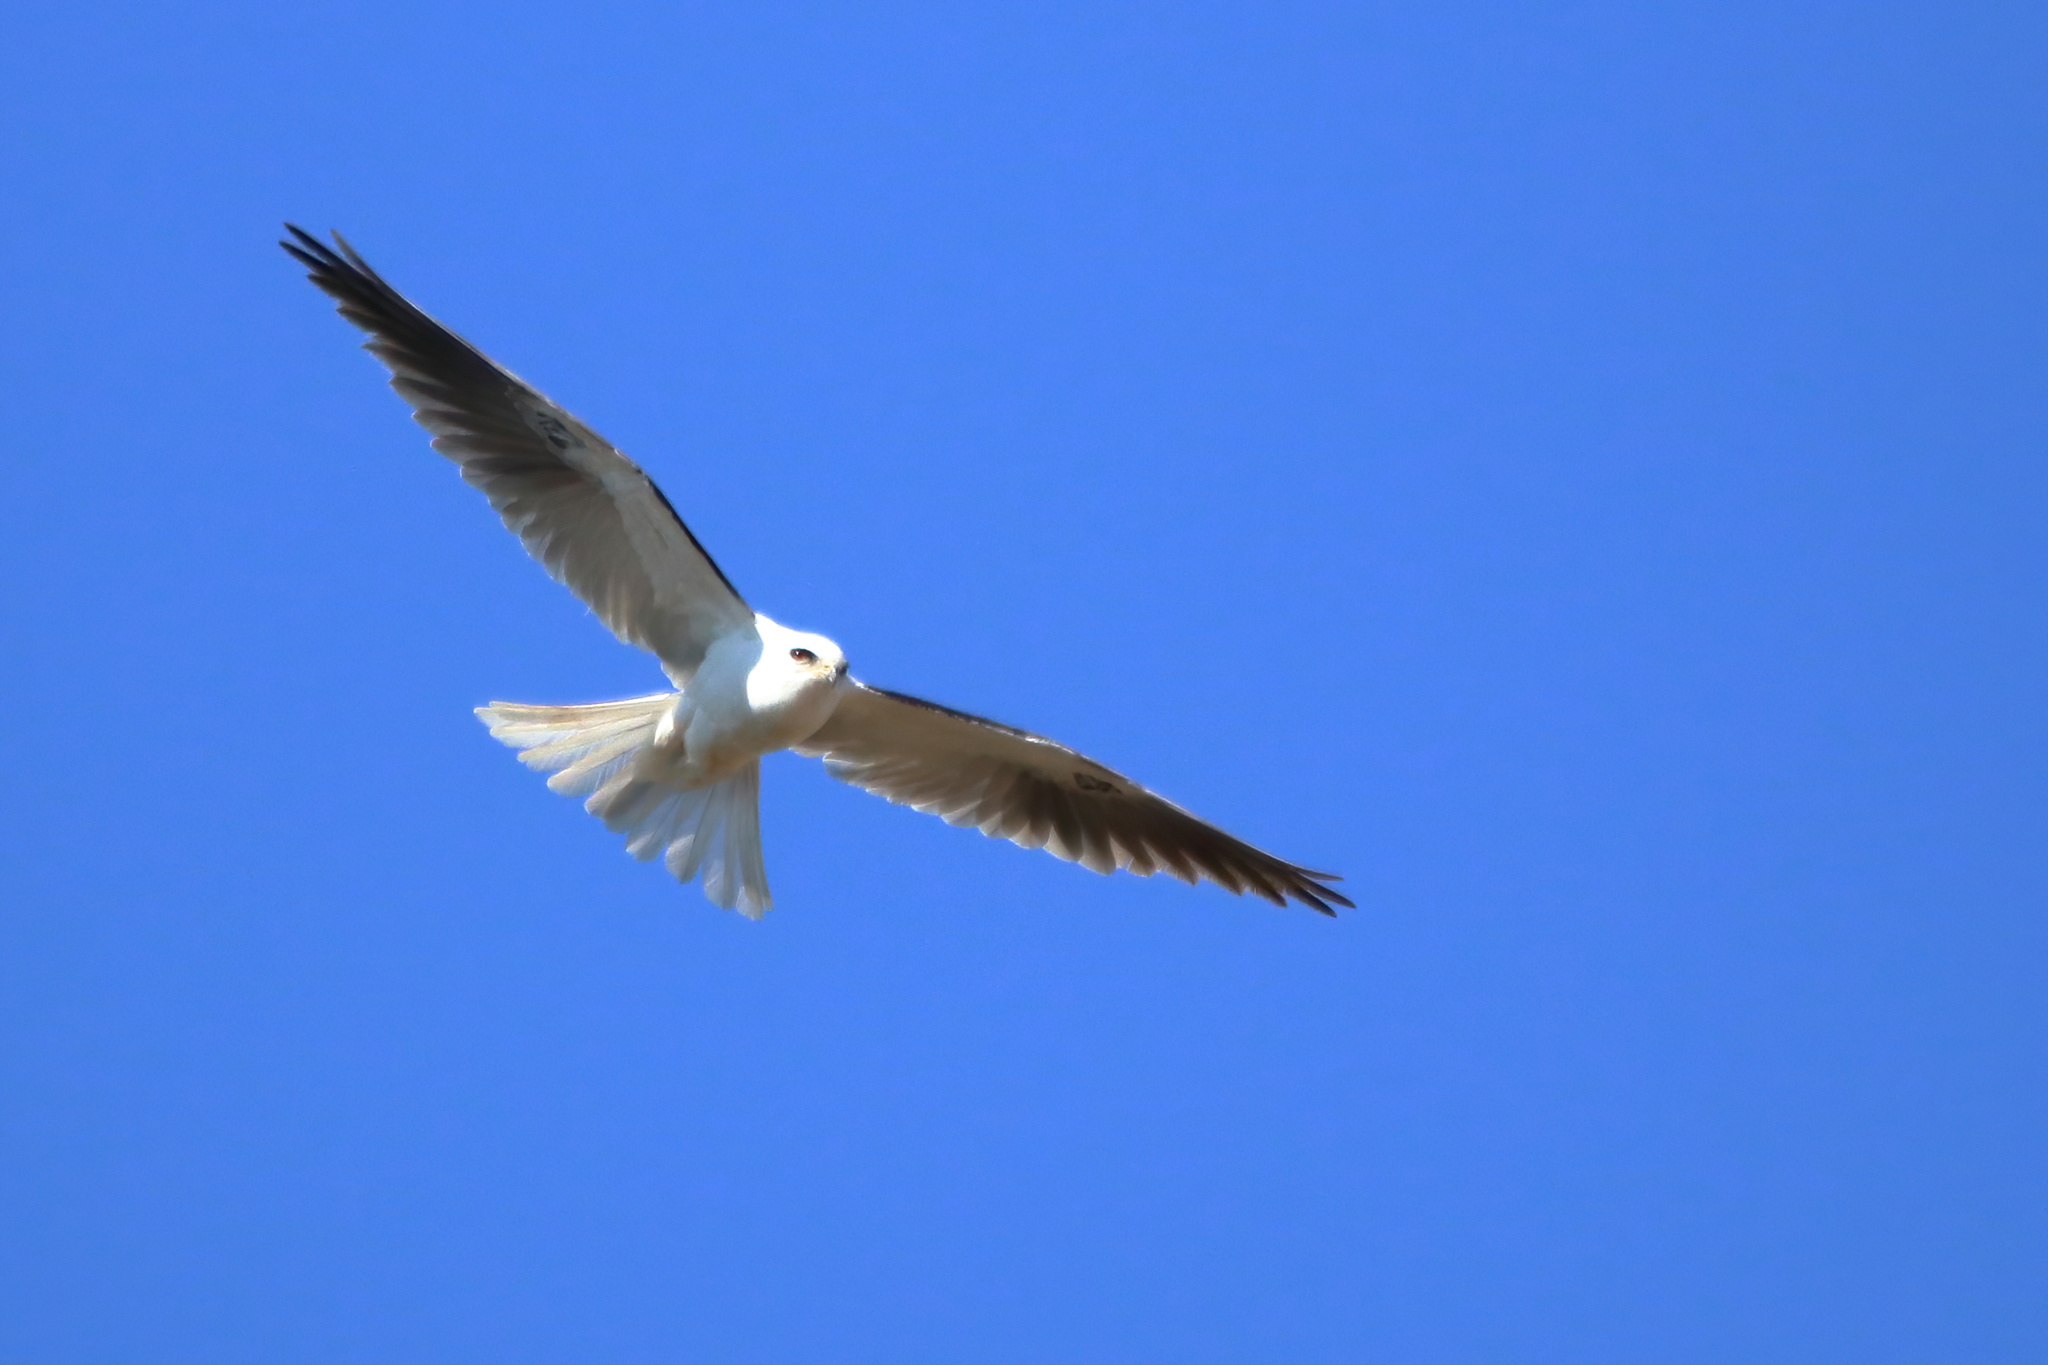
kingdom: Animalia
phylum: Chordata
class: Aves
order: Accipitriformes
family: Accipitridae
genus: Elanus
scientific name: Elanus leucurus
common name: White-tailed kite
